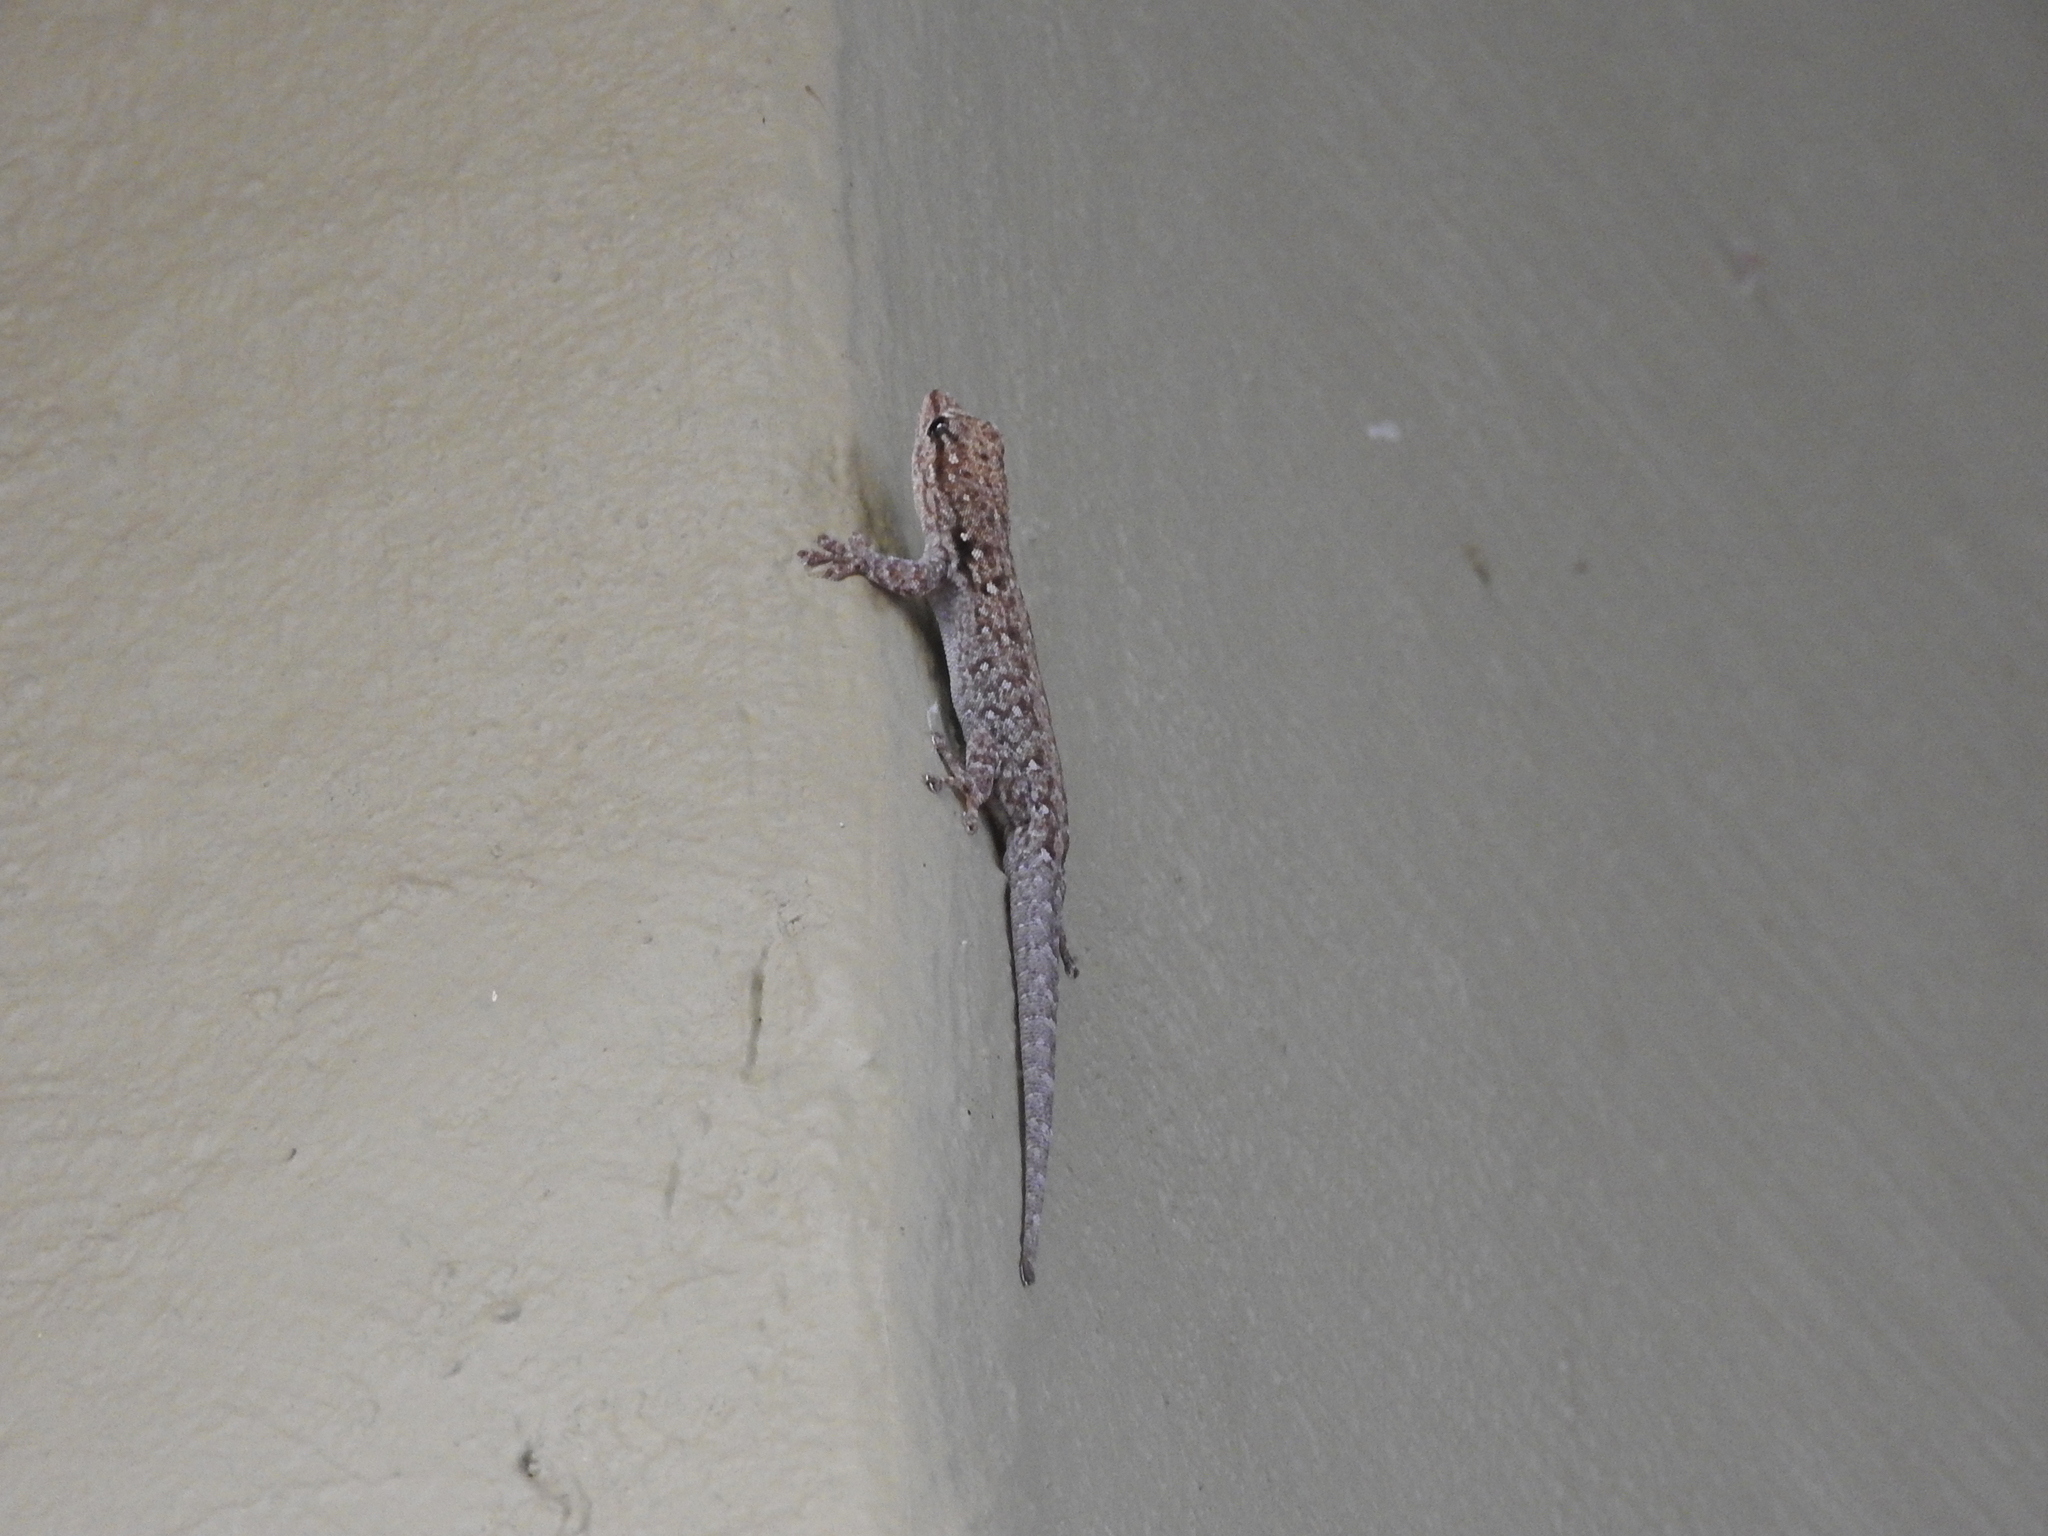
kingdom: Animalia
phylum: Chordata
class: Squamata
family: Gekkonidae
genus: Lygodactylus
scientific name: Lygodactylus chobiensis
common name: Okavango dwarf gecko
